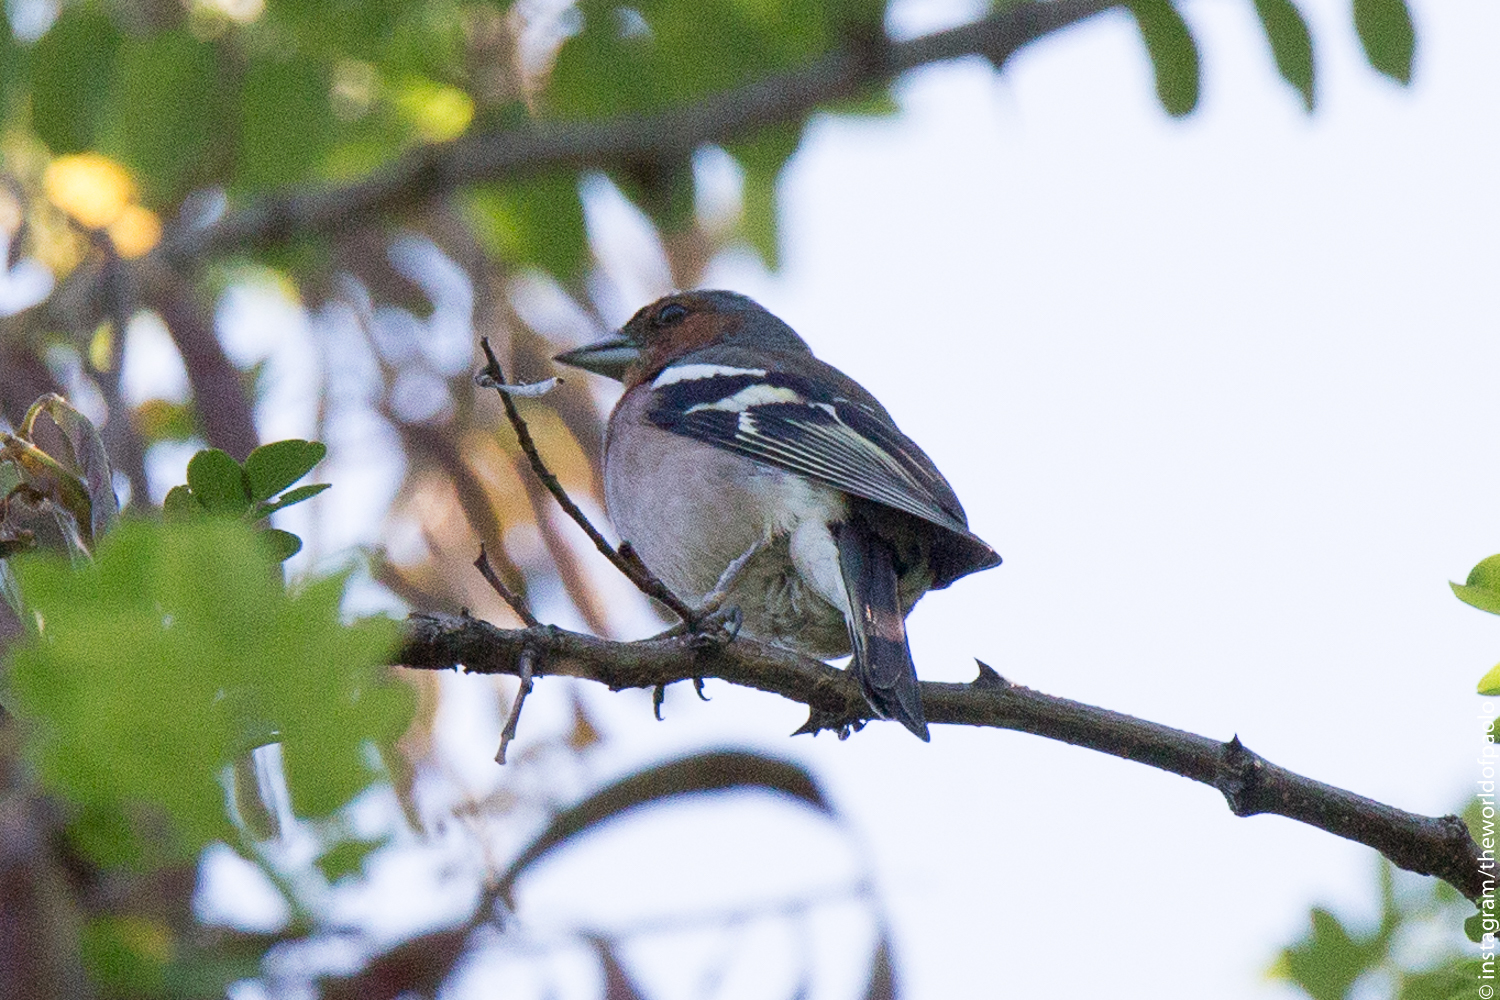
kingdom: Animalia
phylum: Chordata
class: Aves
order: Passeriformes
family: Fringillidae
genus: Fringilla
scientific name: Fringilla coelebs
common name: Common chaffinch
